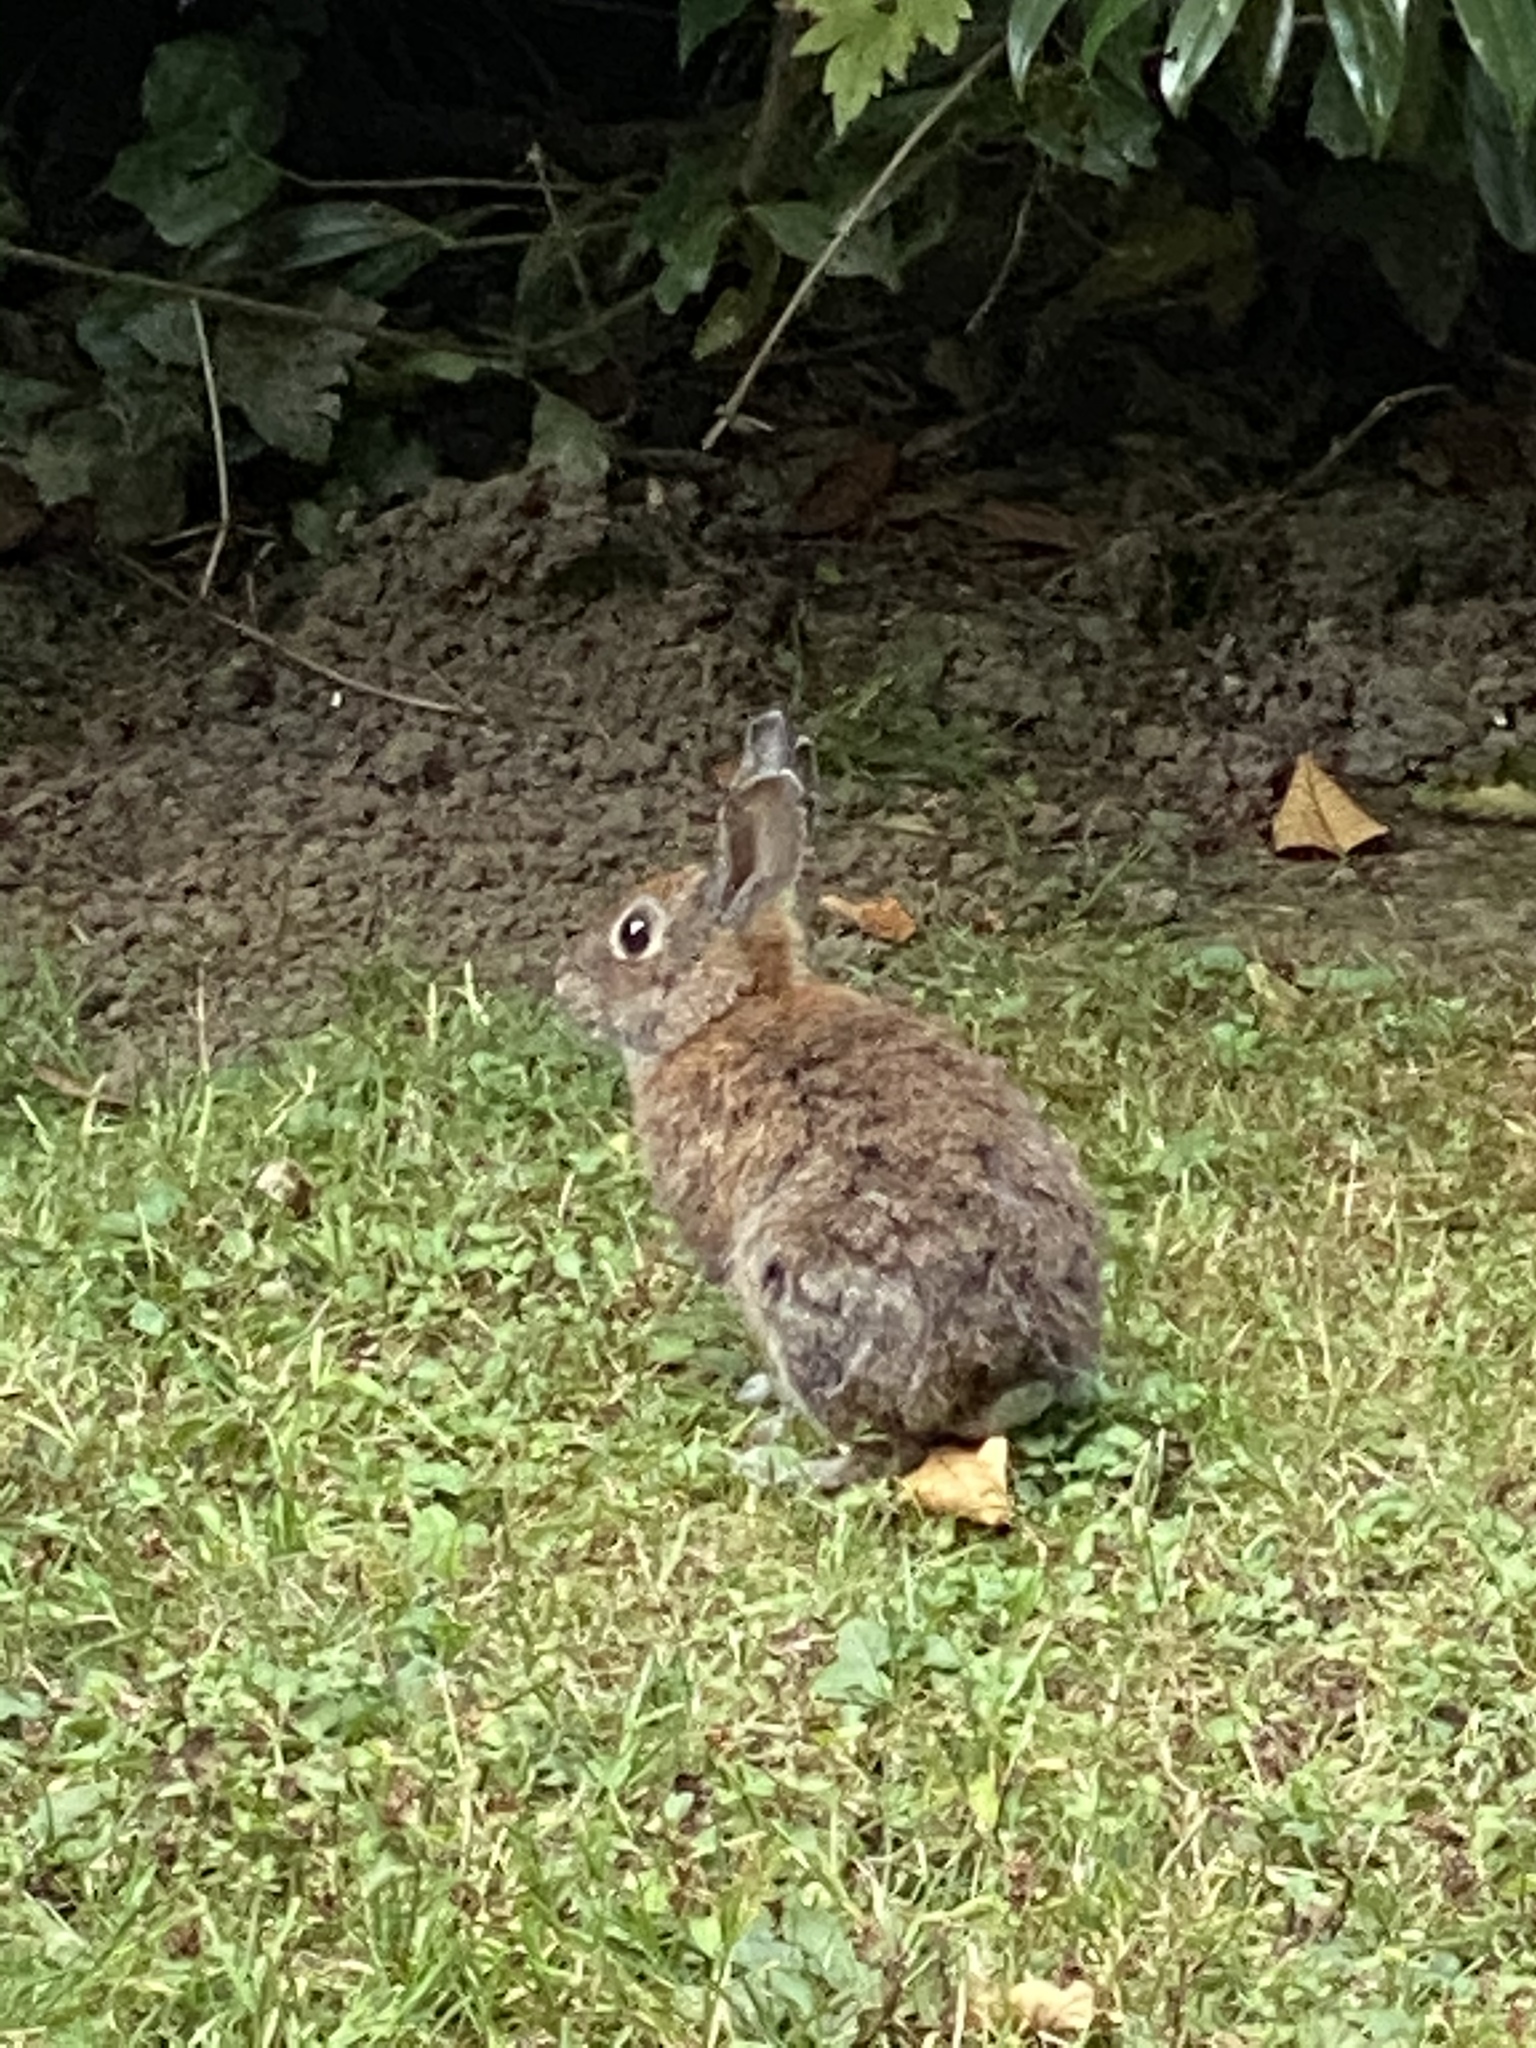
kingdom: Animalia
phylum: Chordata
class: Mammalia
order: Lagomorpha
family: Leporidae
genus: Sylvilagus
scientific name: Sylvilagus bachmani
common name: Brush rabbit
